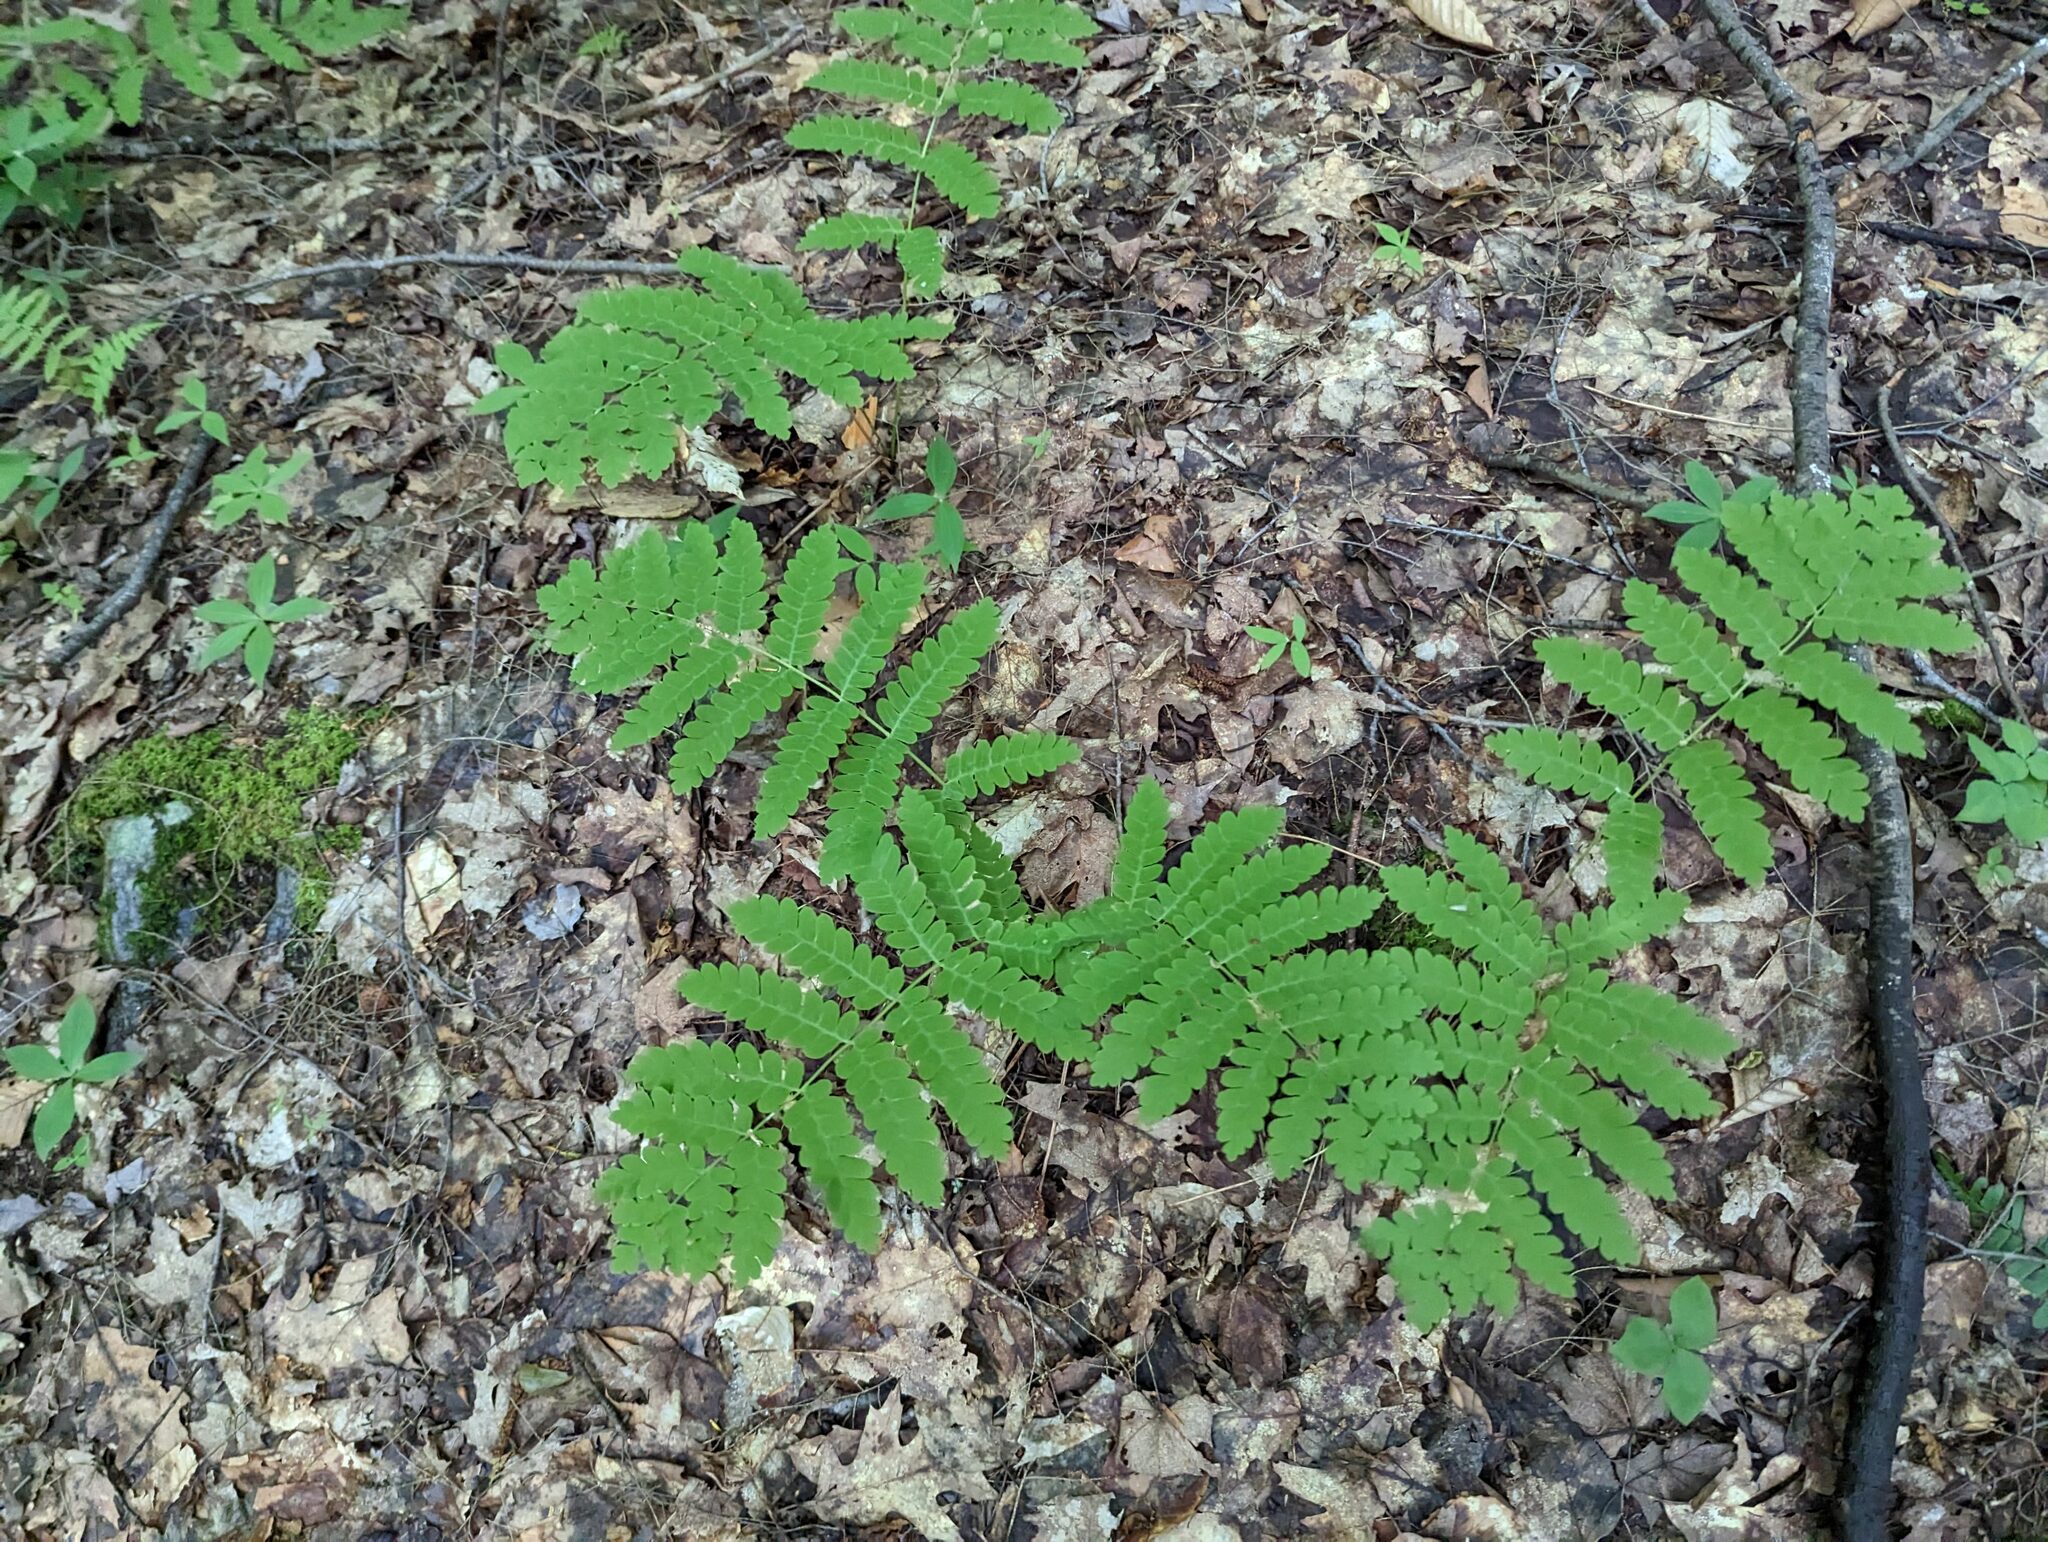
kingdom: Plantae
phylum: Tracheophyta
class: Polypodiopsida
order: Osmundales
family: Osmundaceae
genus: Claytosmunda
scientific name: Claytosmunda claytoniana
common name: Clayton's fern
